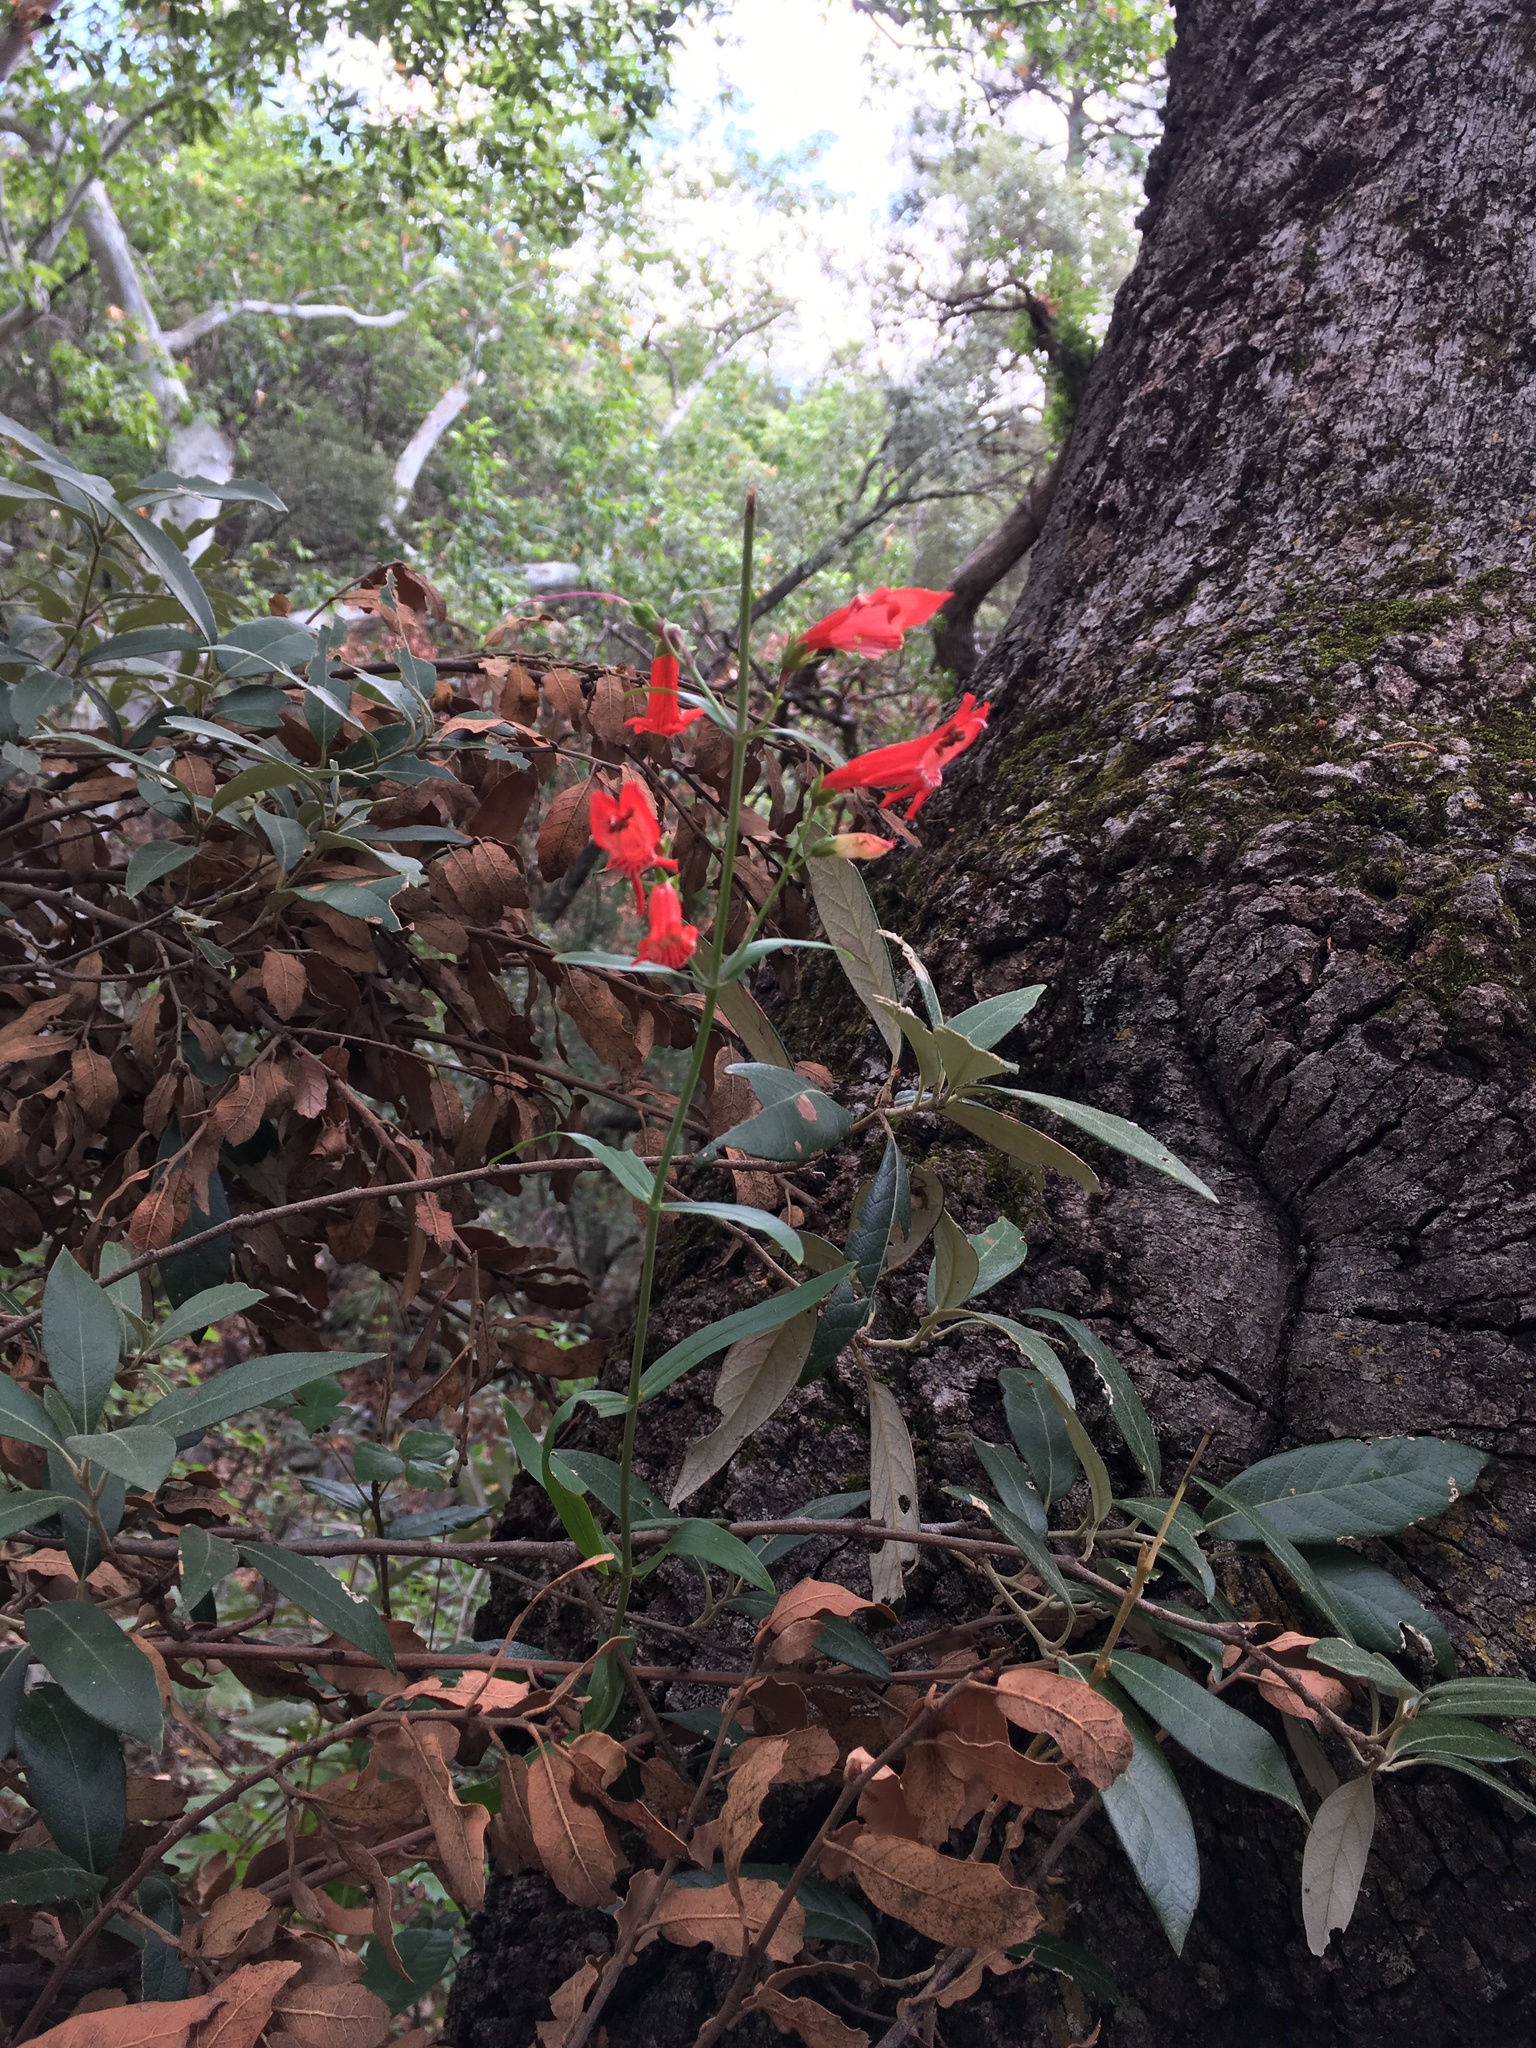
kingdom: Plantae
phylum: Tracheophyta
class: Magnoliopsida
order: Lamiales
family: Plantaginaceae
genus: Penstemon
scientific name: Penstemon barbatus
